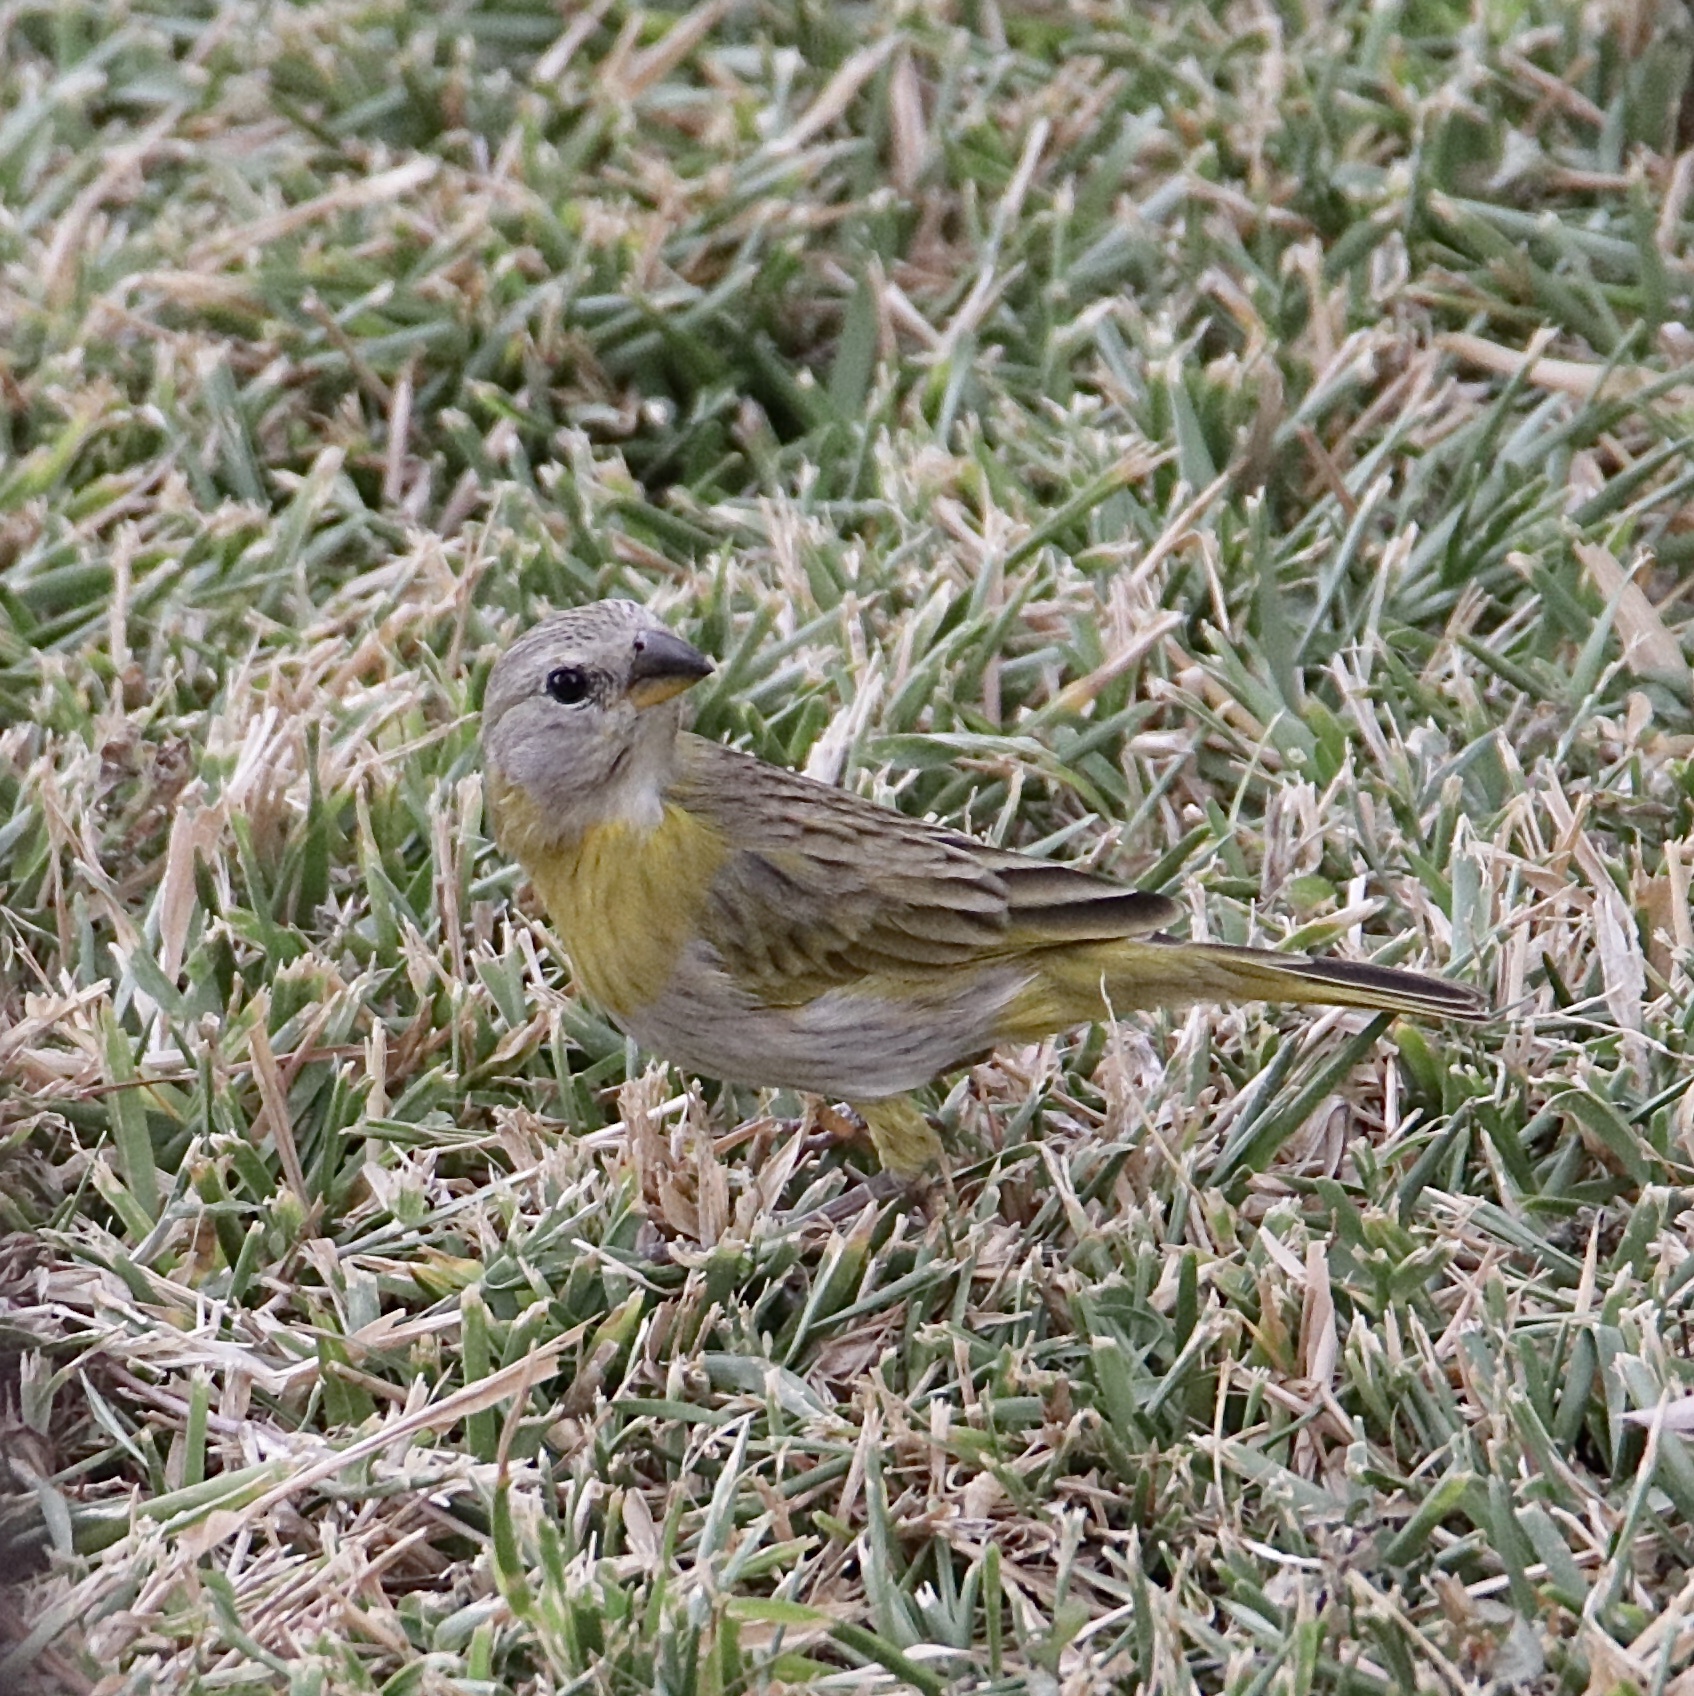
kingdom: Animalia
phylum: Chordata
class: Aves
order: Passeriformes
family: Thraupidae
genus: Sicalis
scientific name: Sicalis flaveola
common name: Saffron finch
